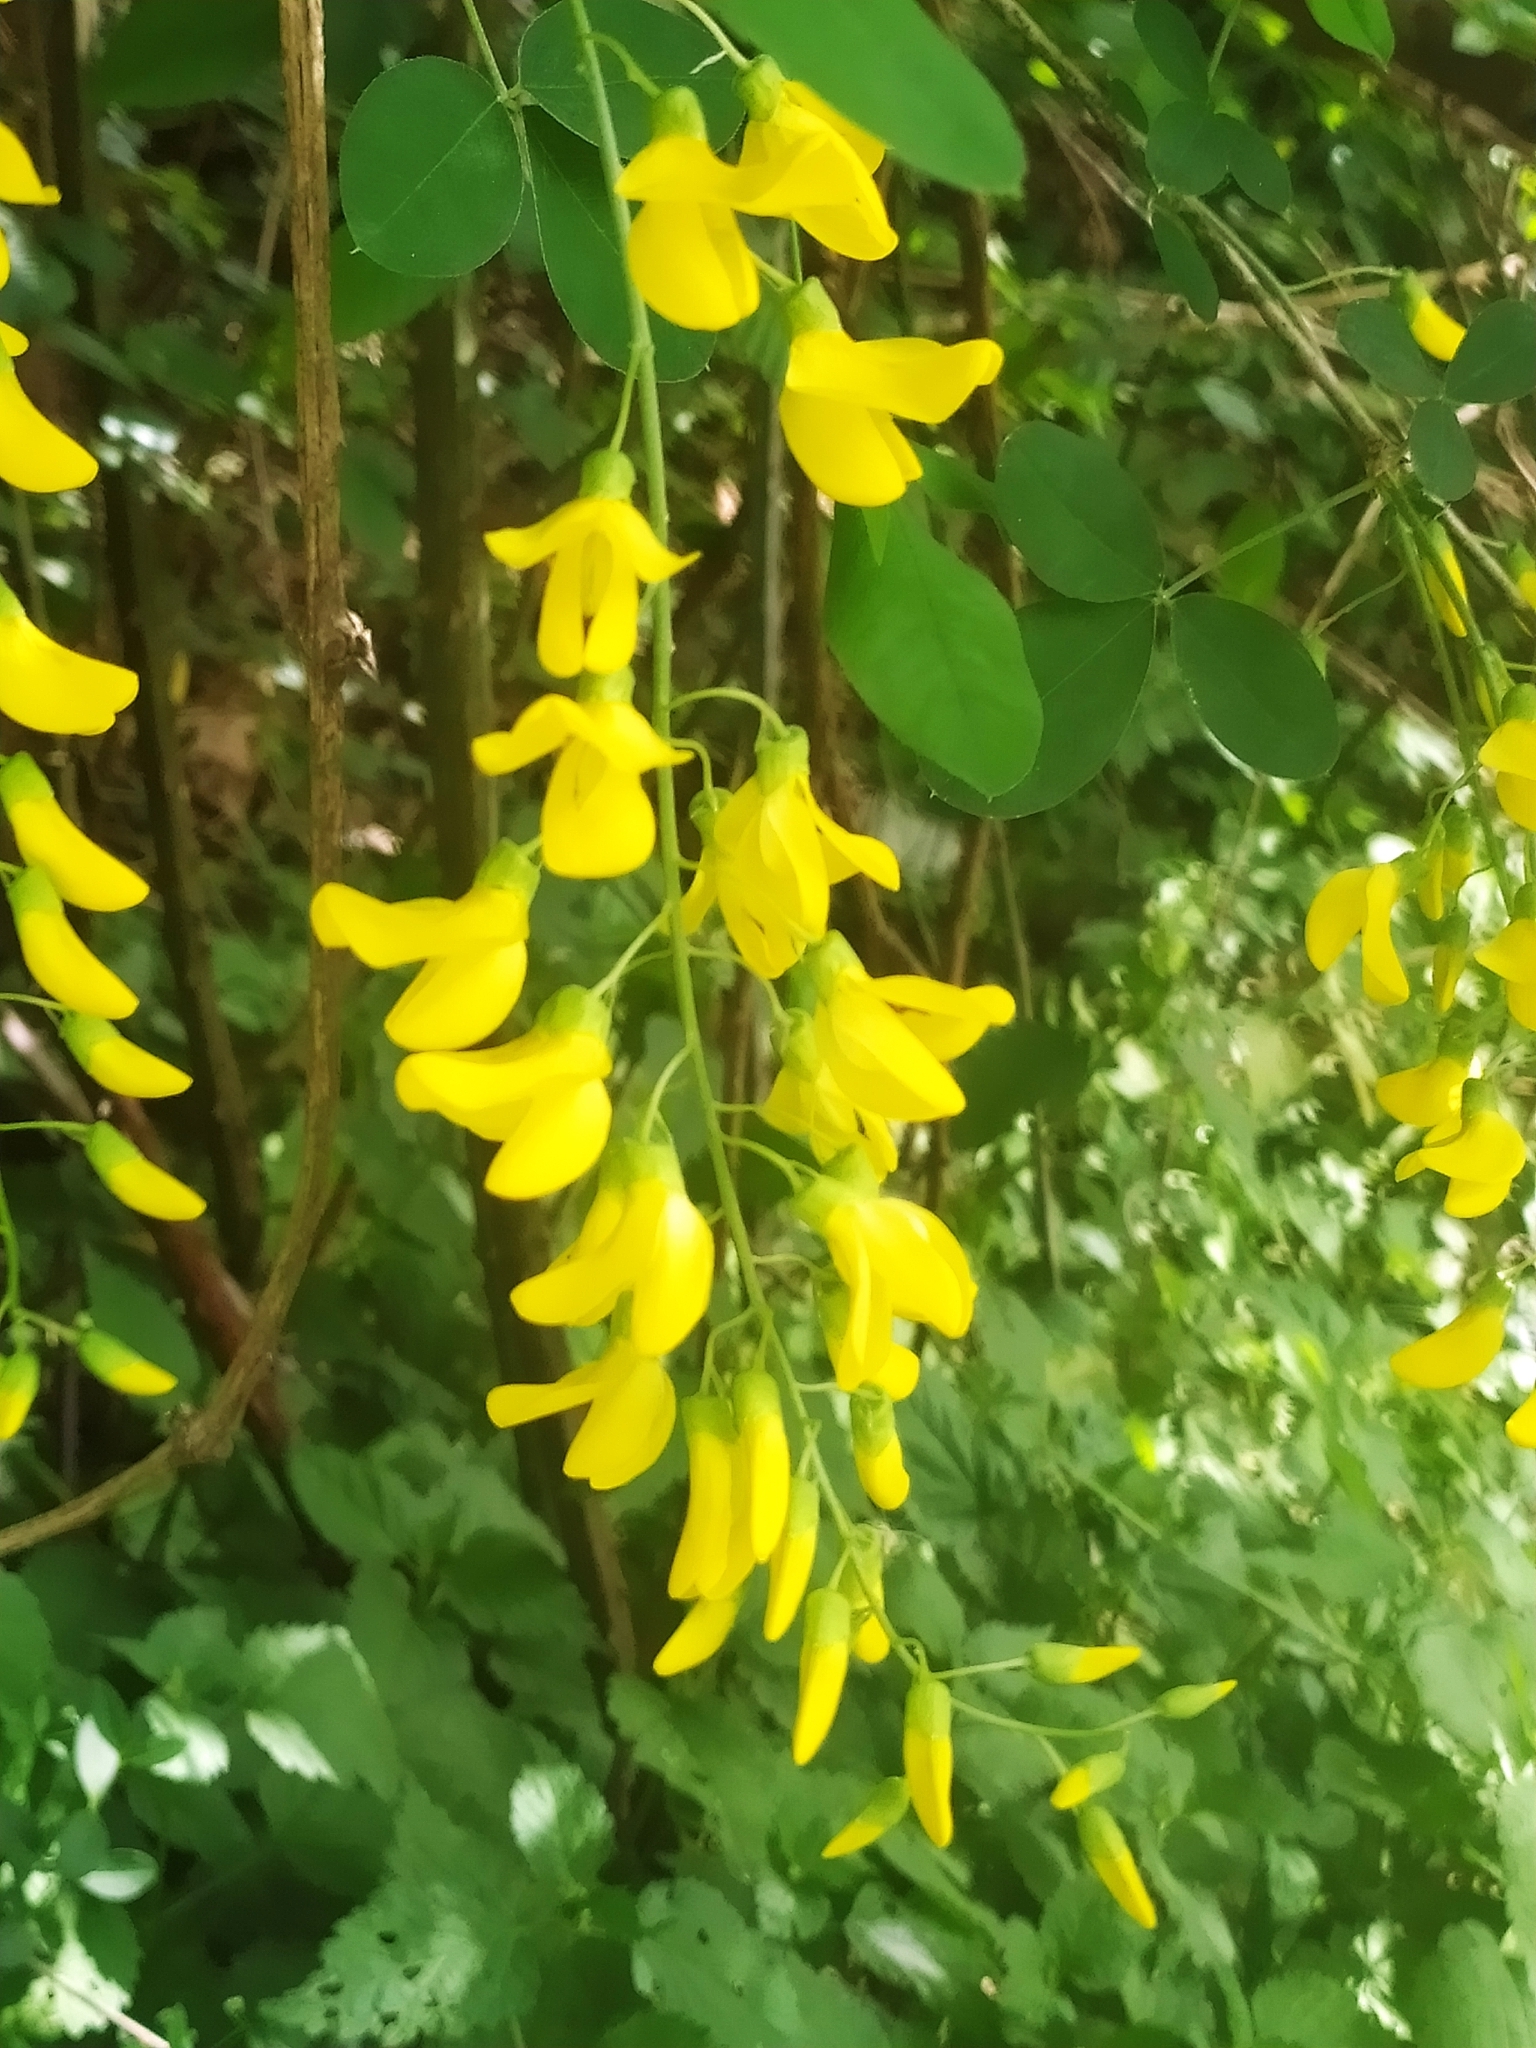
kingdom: Plantae
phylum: Tracheophyta
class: Magnoliopsida
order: Fabales
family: Fabaceae
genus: Laburnum
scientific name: Laburnum anagyroides
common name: Laburnum
